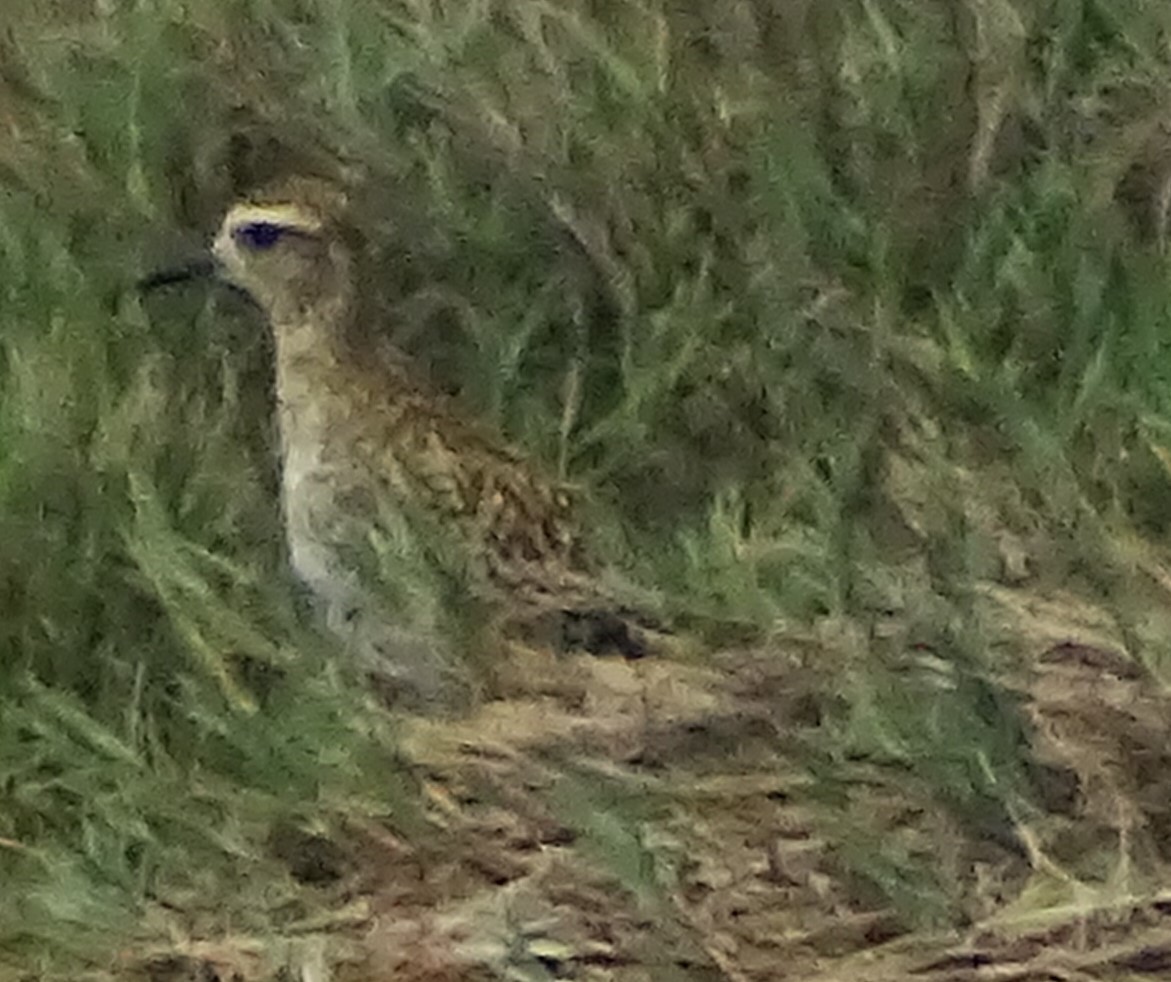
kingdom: Animalia
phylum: Chordata
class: Aves
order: Charadriiformes
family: Charadriidae
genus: Pluvialis
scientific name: Pluvialis fulva
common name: Pacific golden plover
